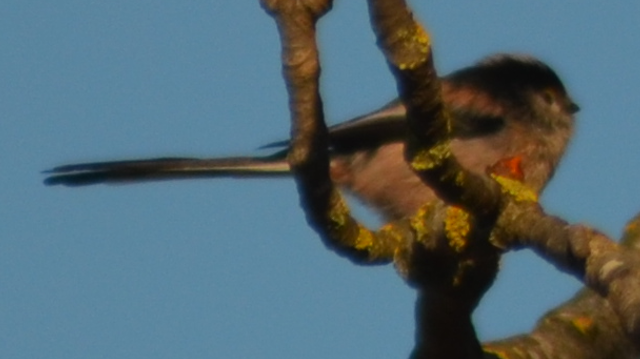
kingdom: Animalia
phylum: Chordata
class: Aves
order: Passeriformes
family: Aegithalidae
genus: Aegithalos
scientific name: Aegithalos caudatus
